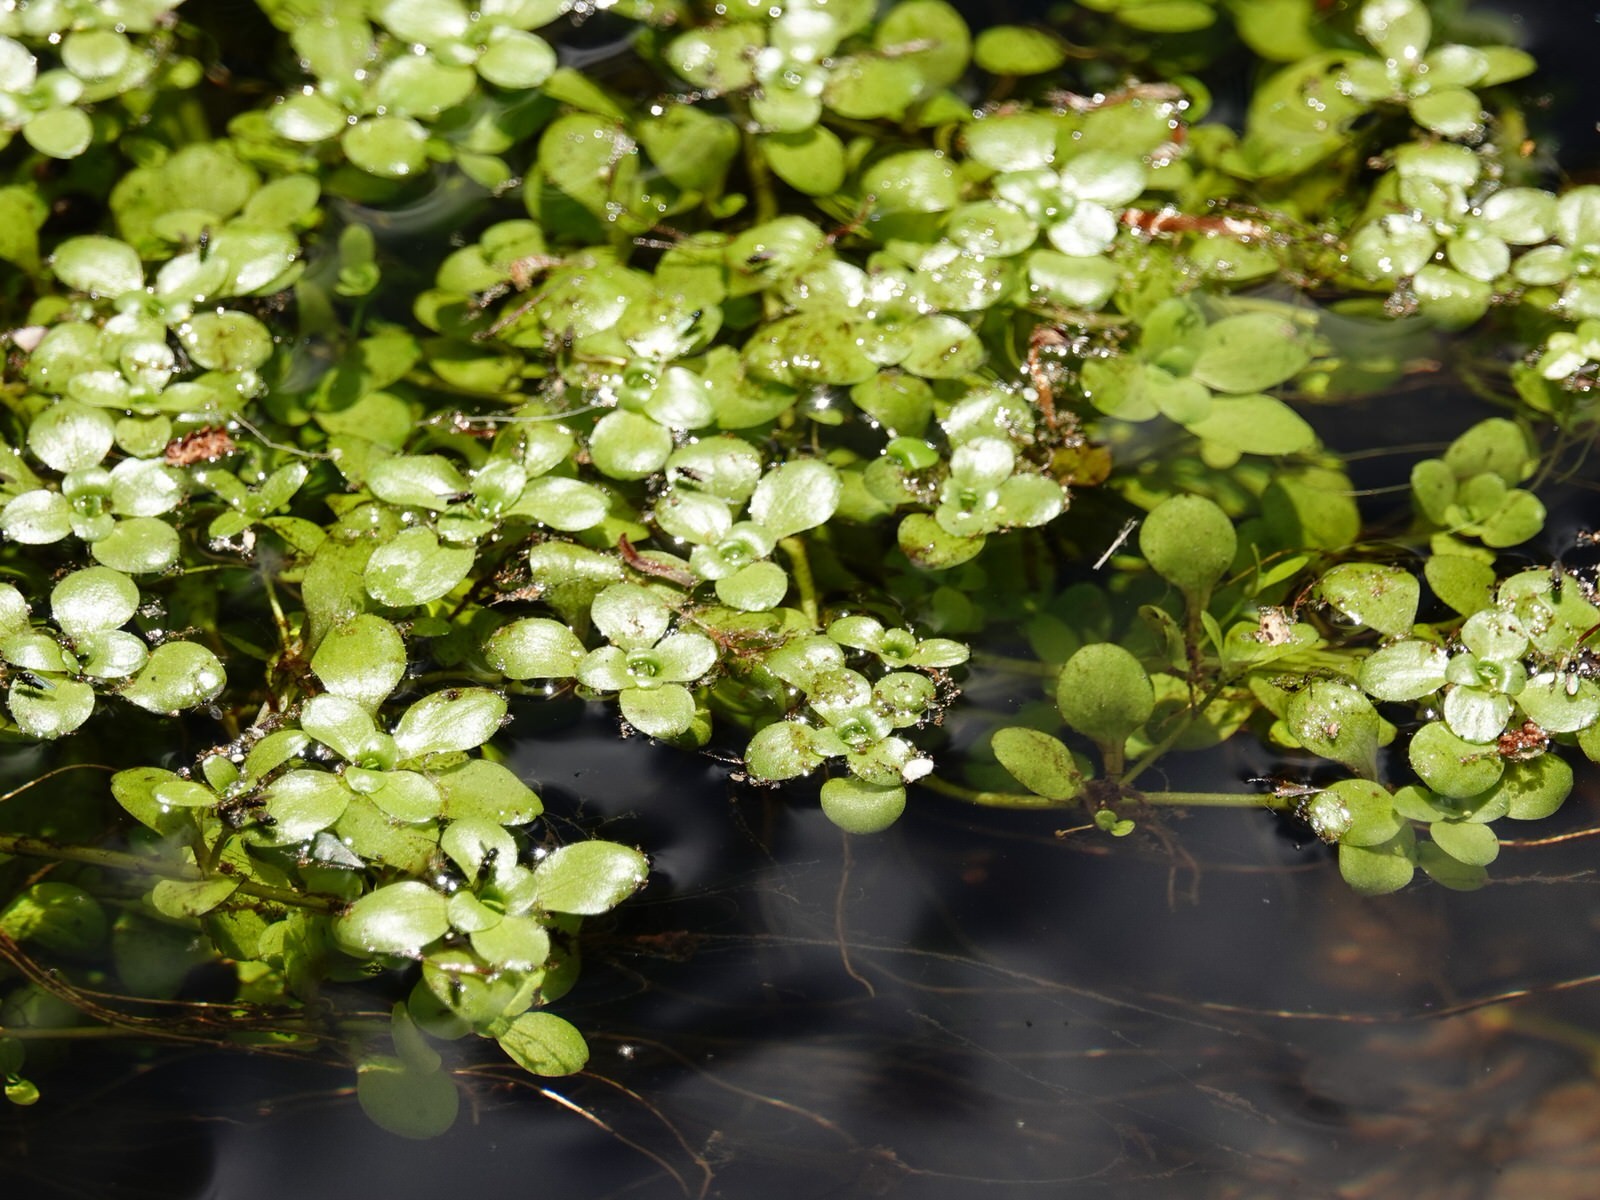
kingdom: Plantae
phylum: Tracheophyta
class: Magnoliopsida
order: Lamiales
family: Plantaginaceae
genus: Callitriche
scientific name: Callitriche stagnalis
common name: Common water-starwort
